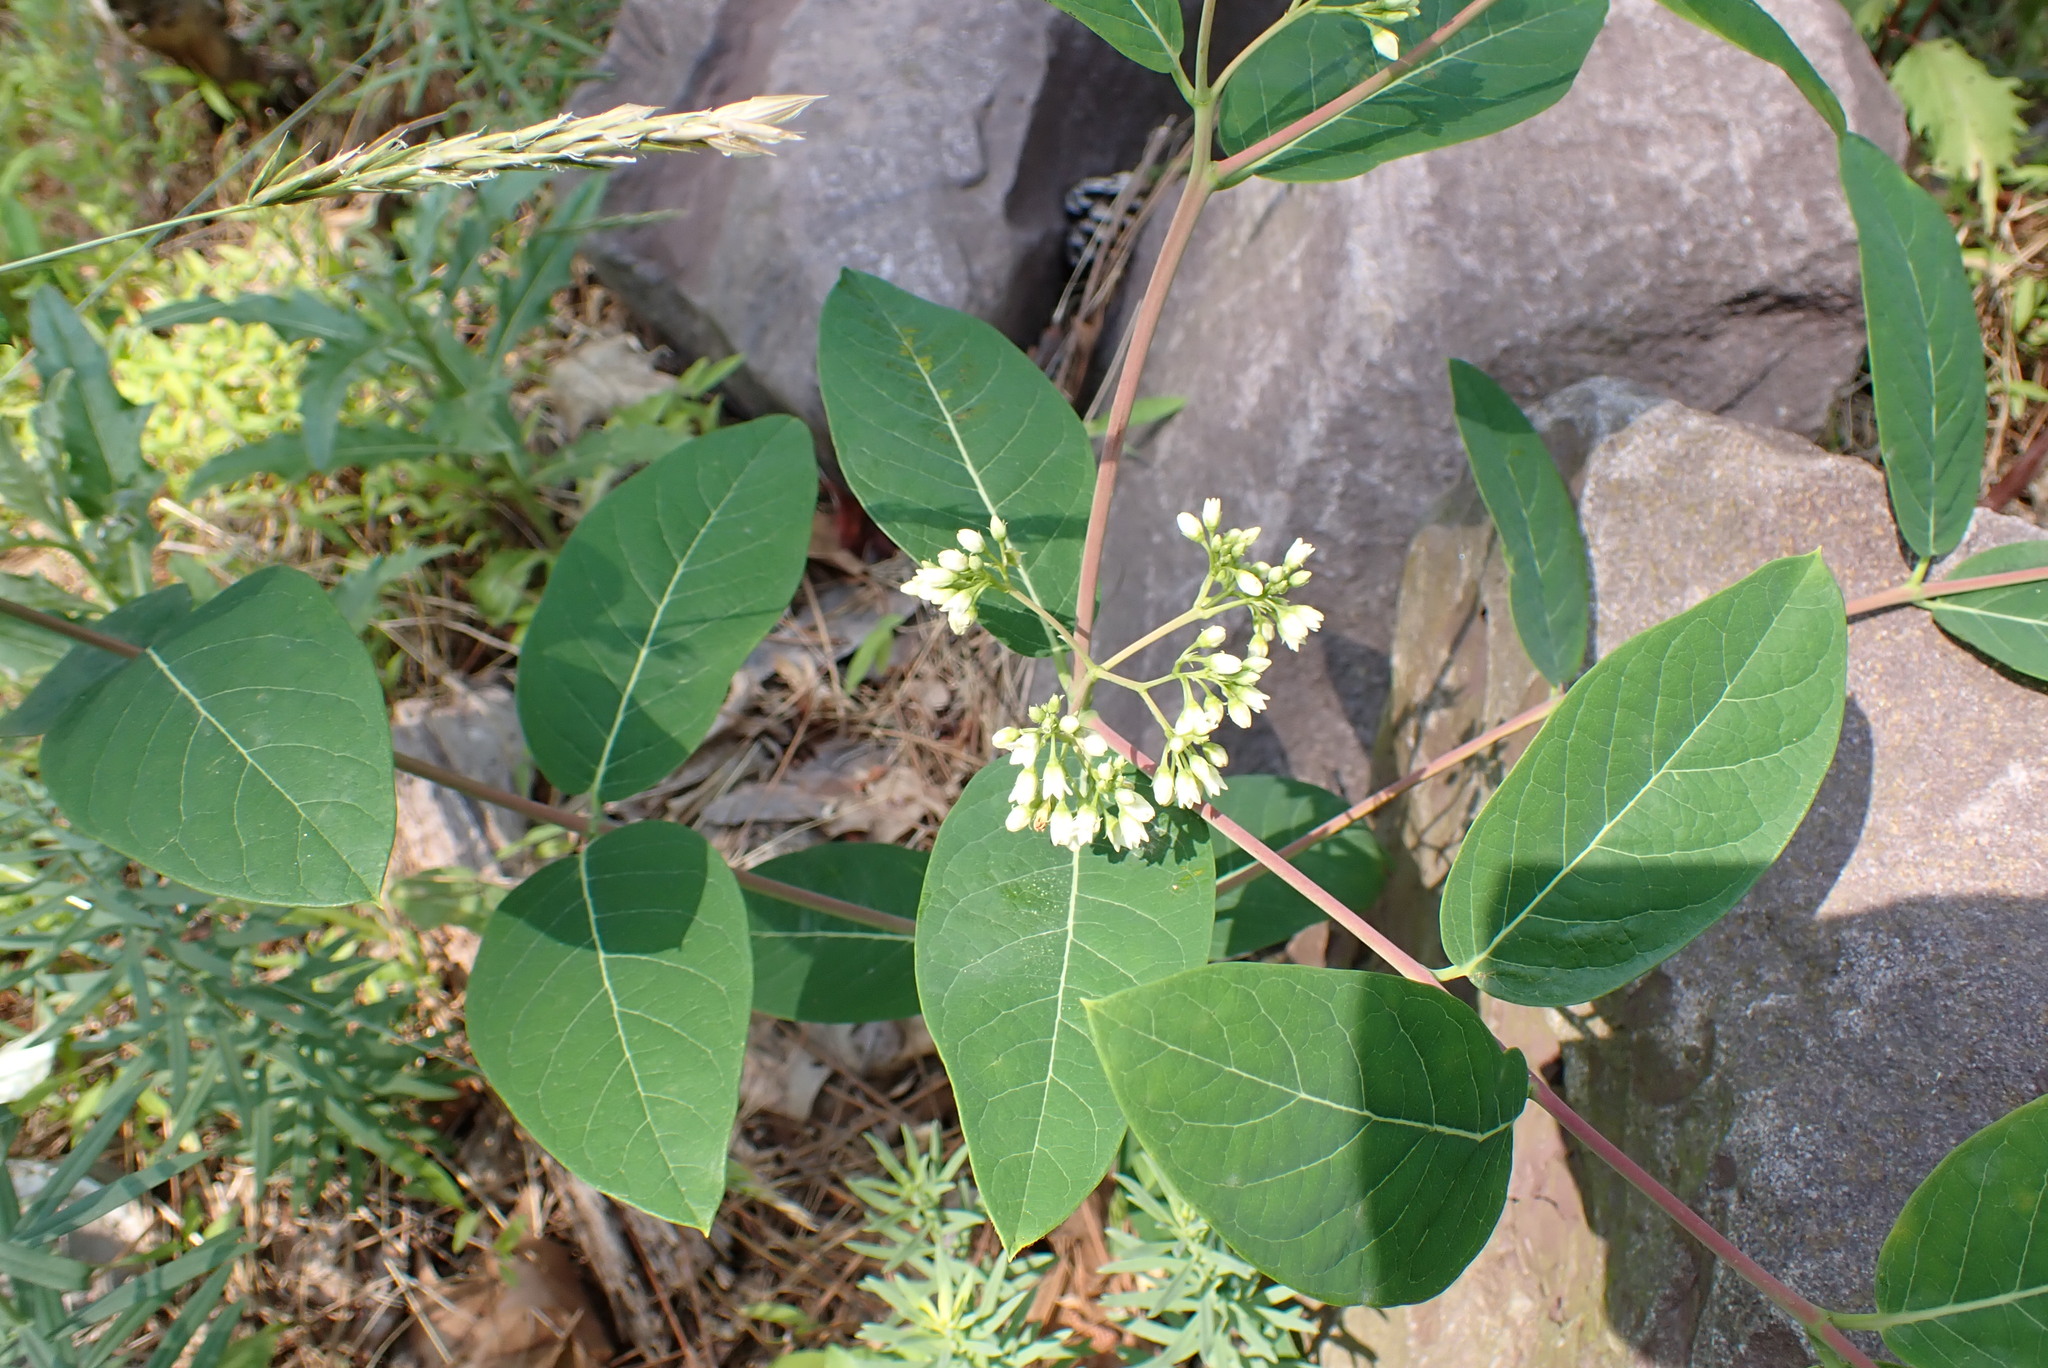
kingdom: Plantae
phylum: Tracheophyta
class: Magnoliopsida
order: Gentianales
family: Apocynaceae
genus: Apocynum
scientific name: Apocynum cannabinum
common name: Hemp dogbane
